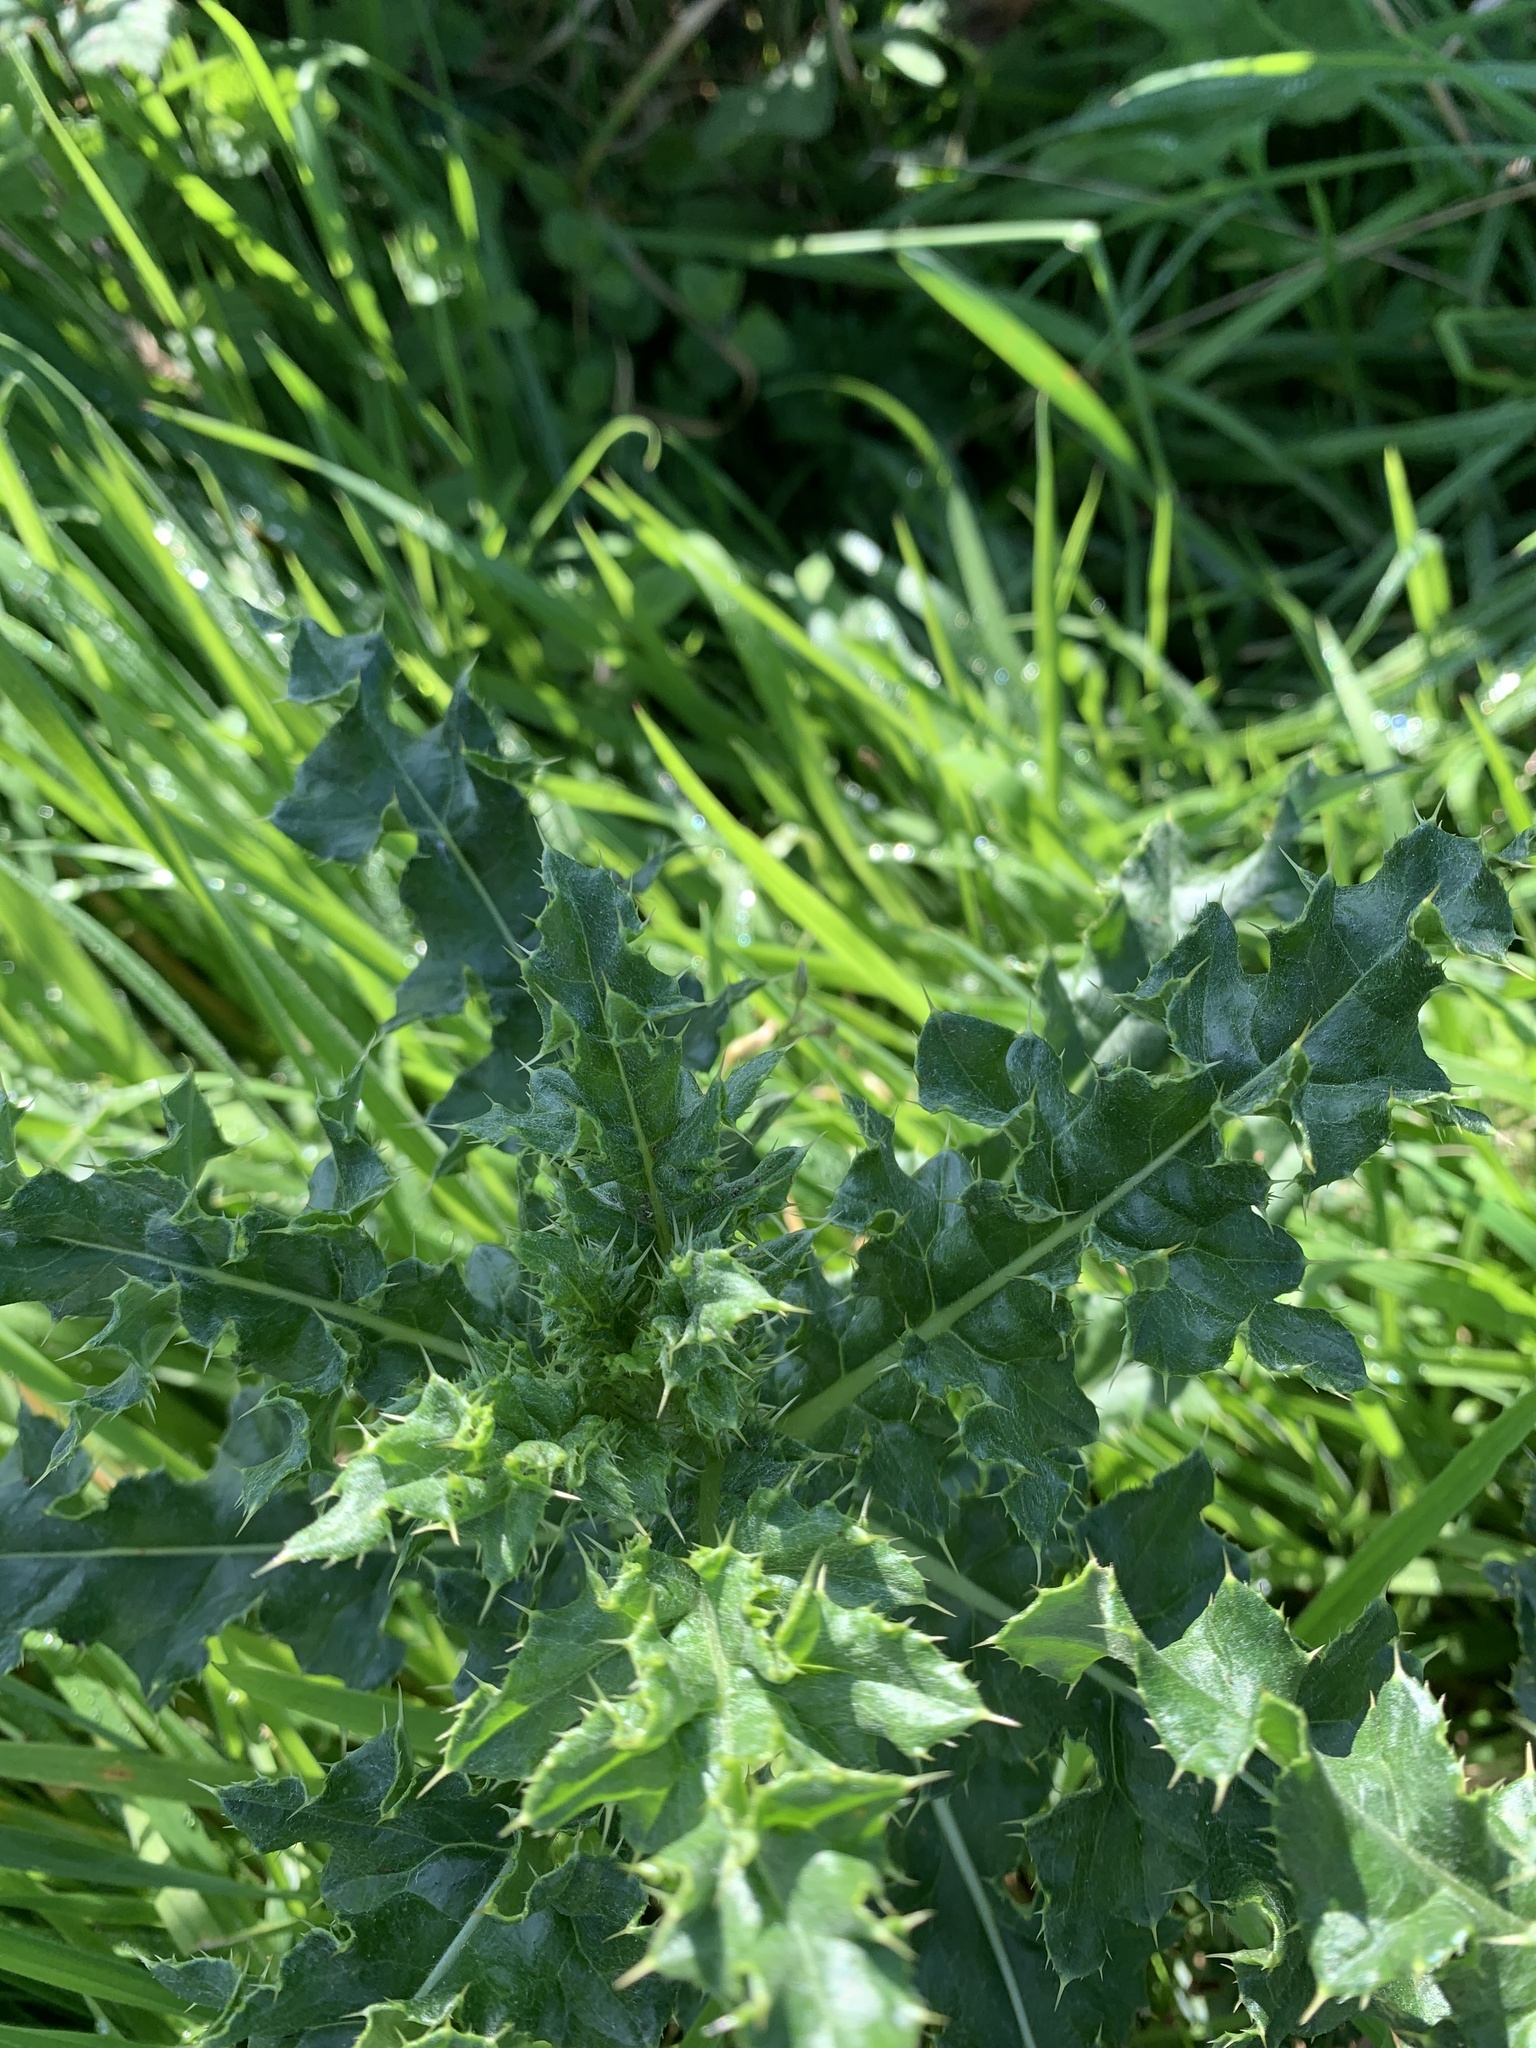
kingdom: Plantae
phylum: Tracheophyta
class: Magnoliopsida
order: Asterales
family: Asteraceae
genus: Cirsium
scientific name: Cirsium arvense
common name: Creeping thistle
